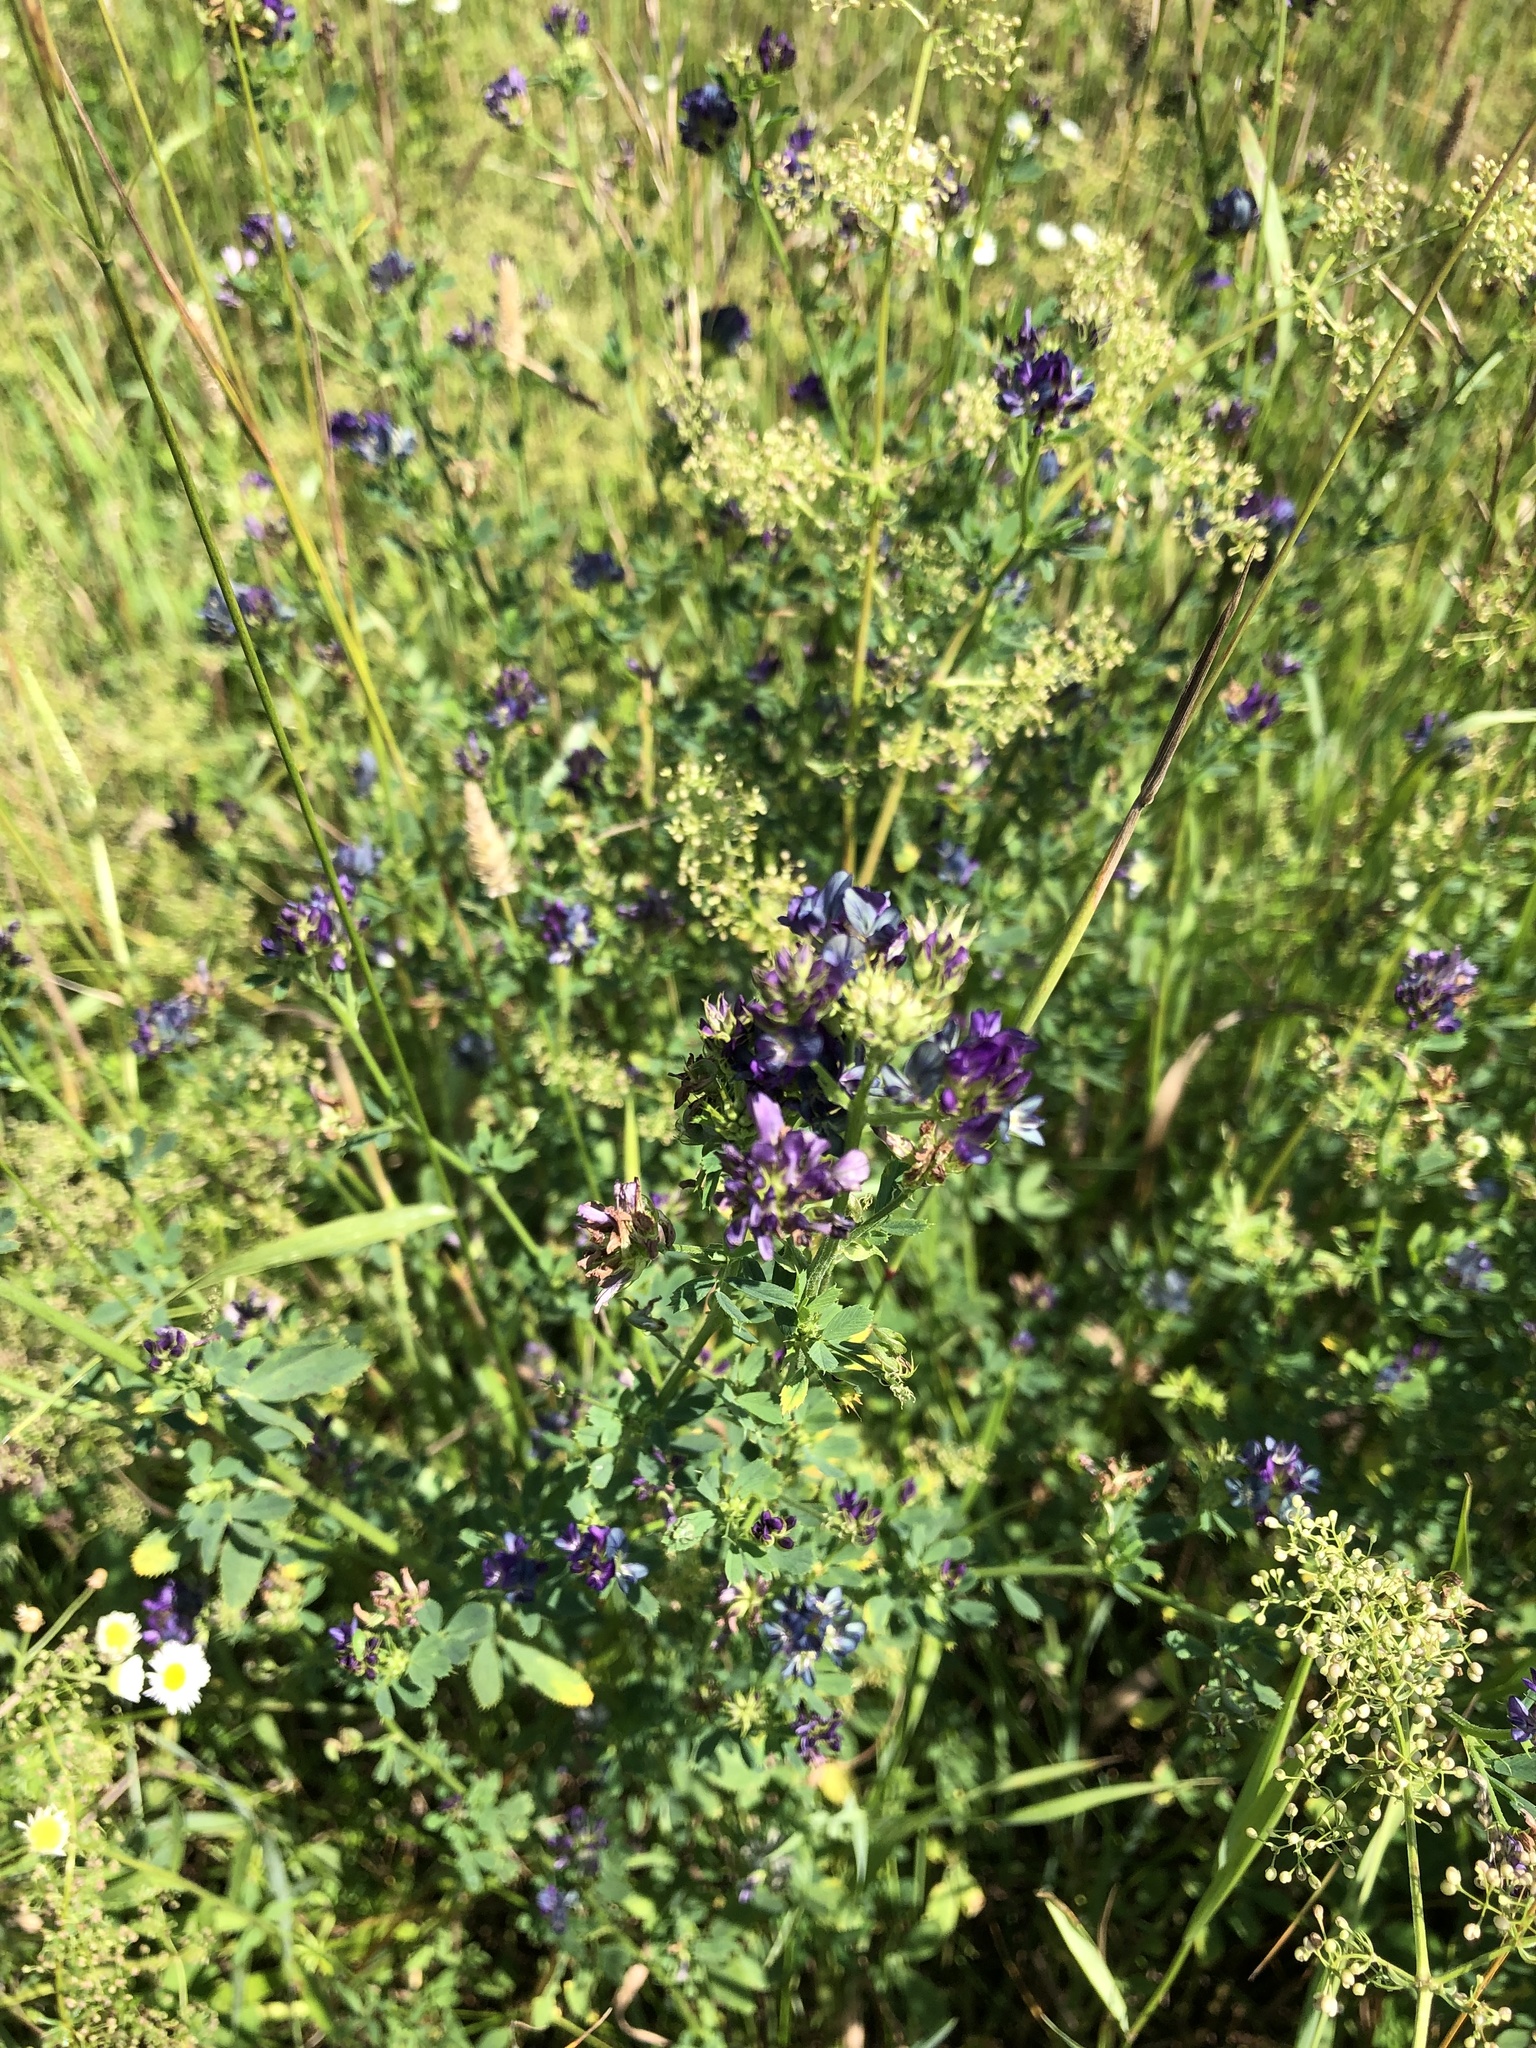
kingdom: Plantae
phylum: Tracheophyta
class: Magnoliopsida
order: Fabales
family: Fabaceae
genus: Medicago
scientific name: Medicago sativa
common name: Alfalfa
